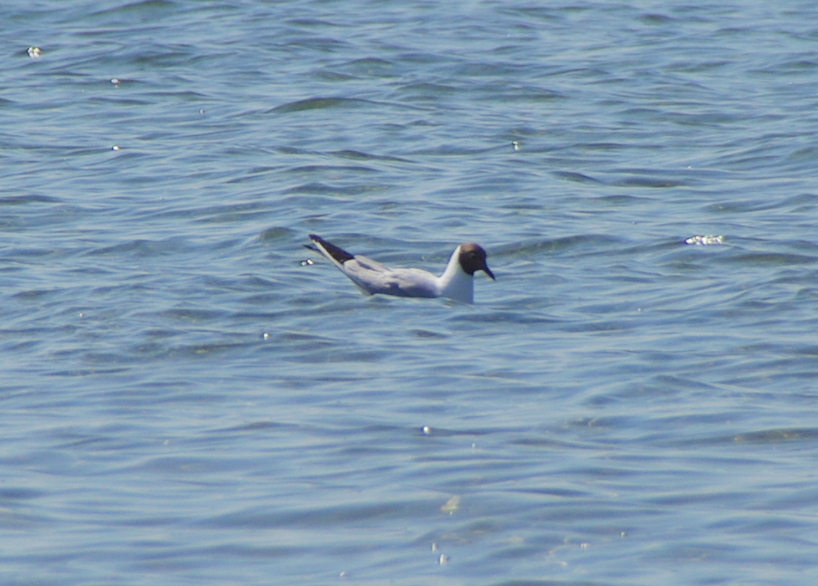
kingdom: Animalia
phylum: Chordata
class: Aves
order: Charadriiformes
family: Laridae
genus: Chroicocephalus
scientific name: Chroicocephalus ridibundus
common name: Black-headed gull
